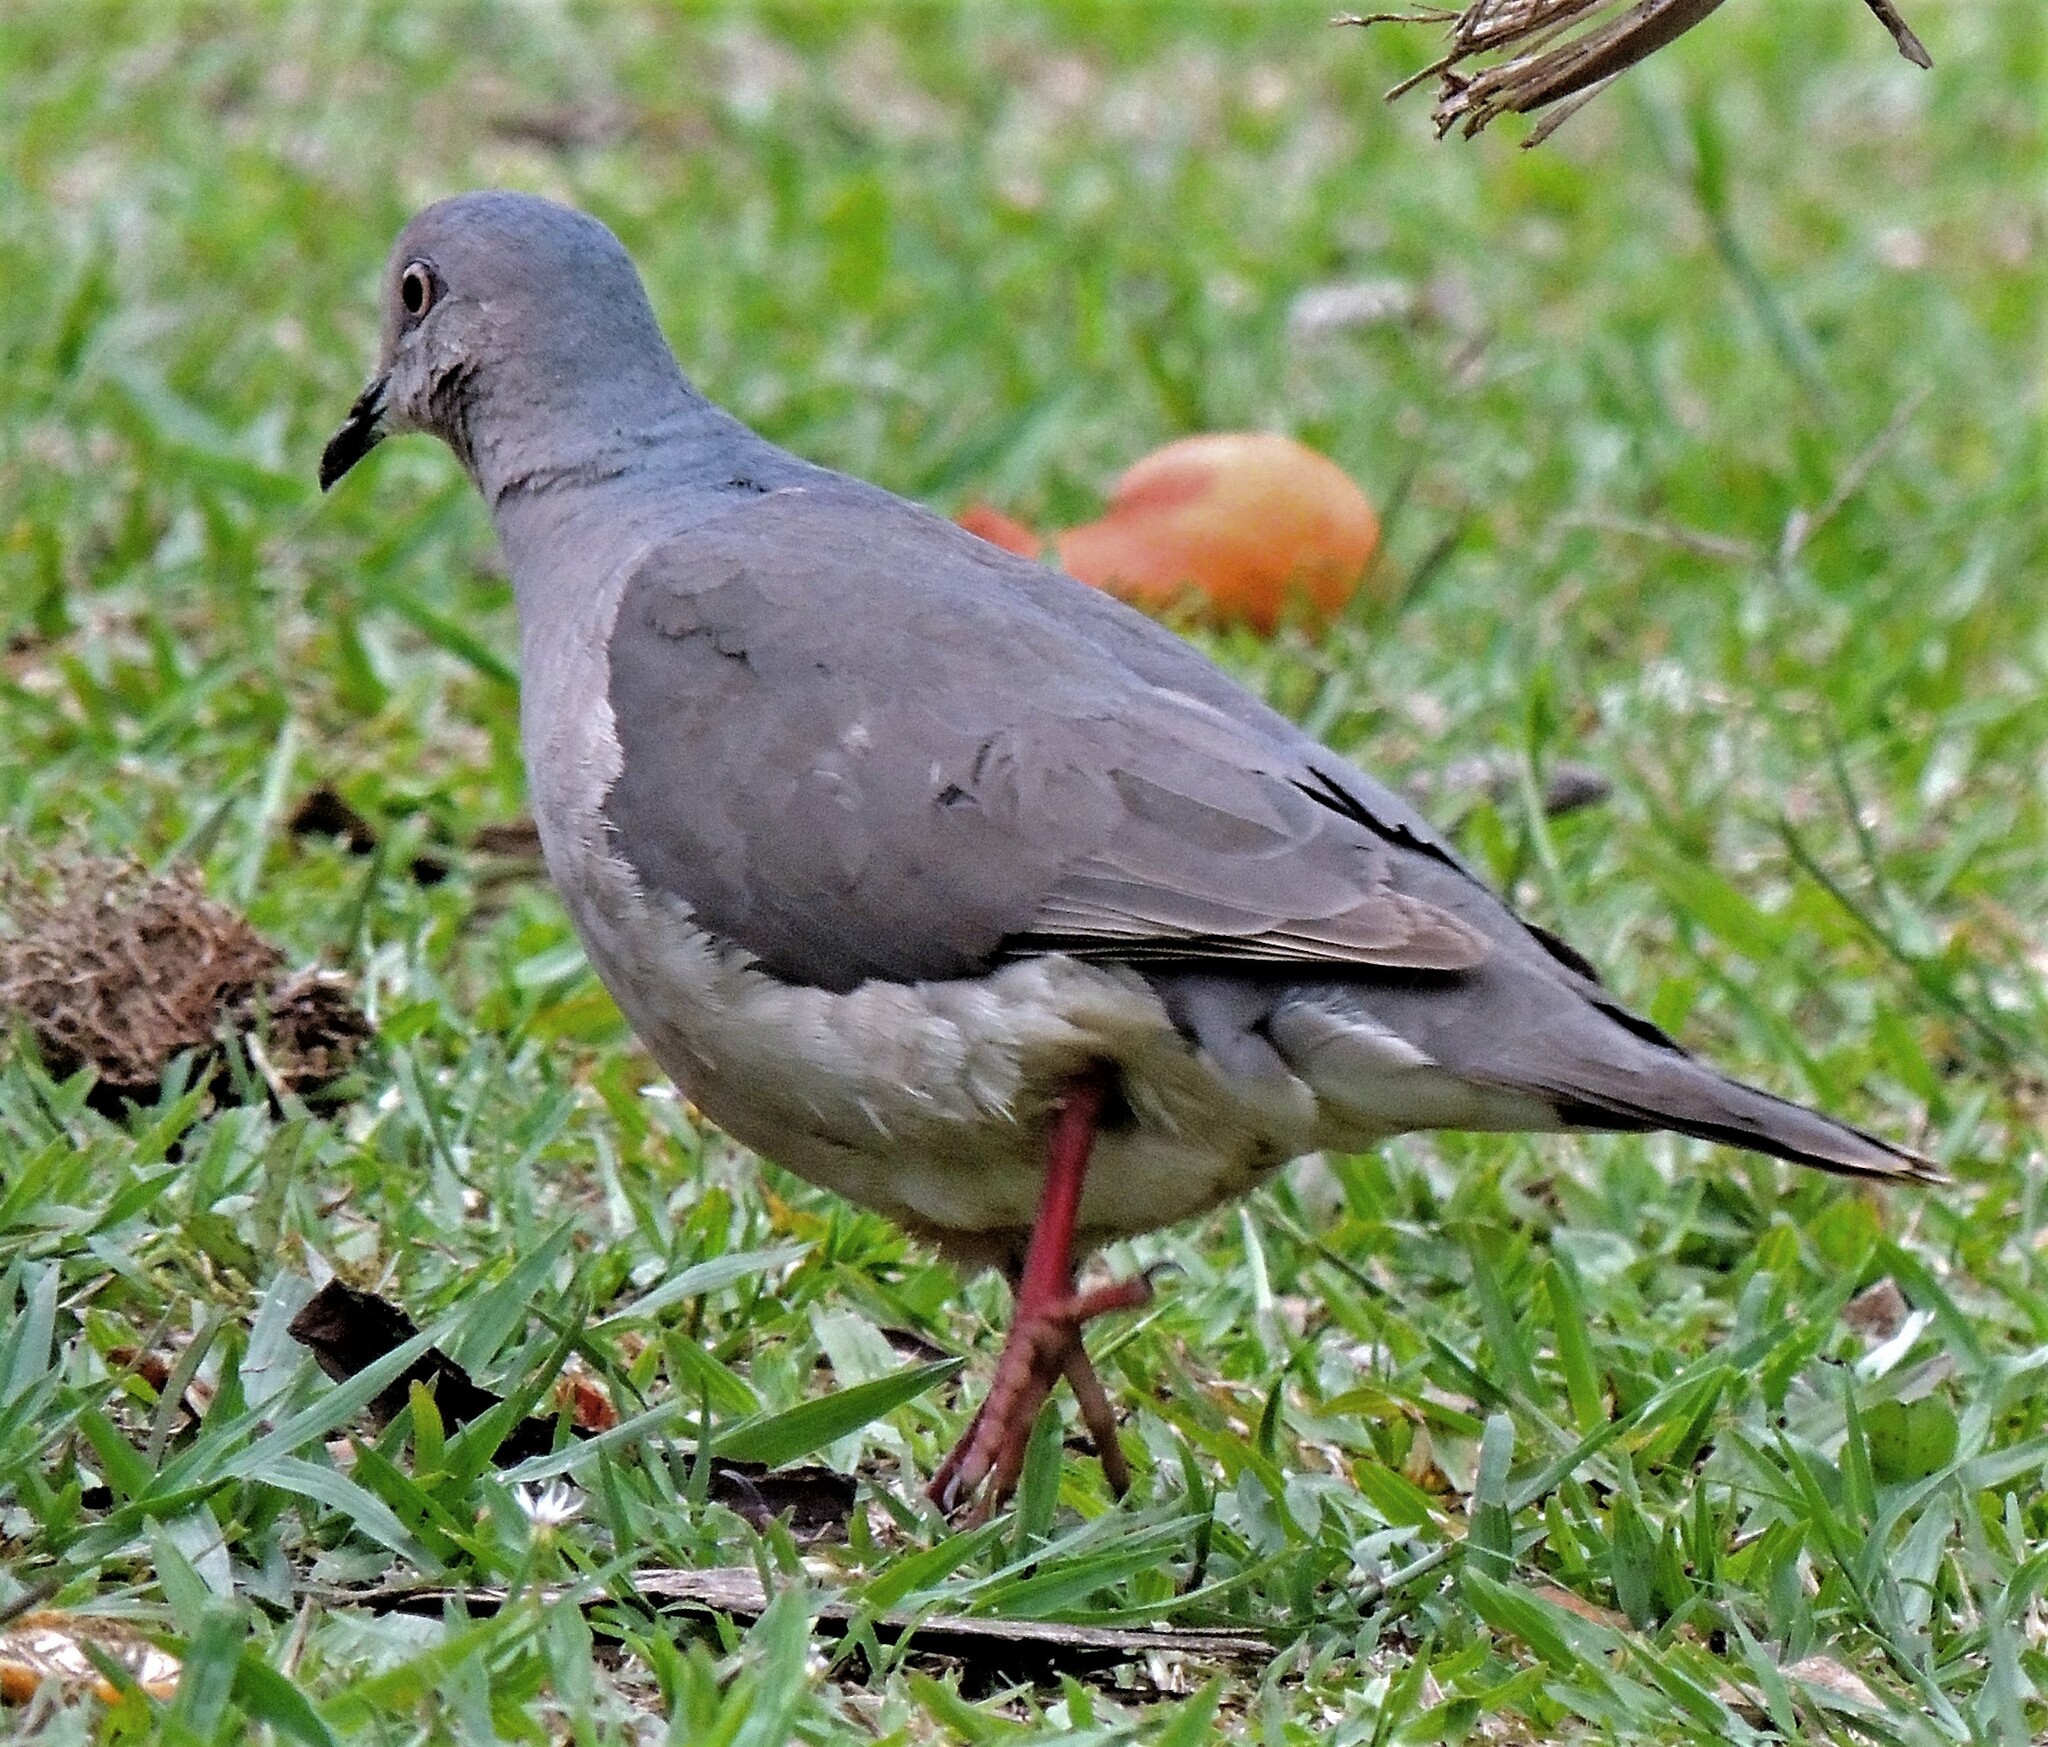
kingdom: Animalia
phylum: Chordata
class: Aves
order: Columbiformes
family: Columbidae
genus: Leptotila
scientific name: Leptotila verreauxi
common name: White-tipped dove
